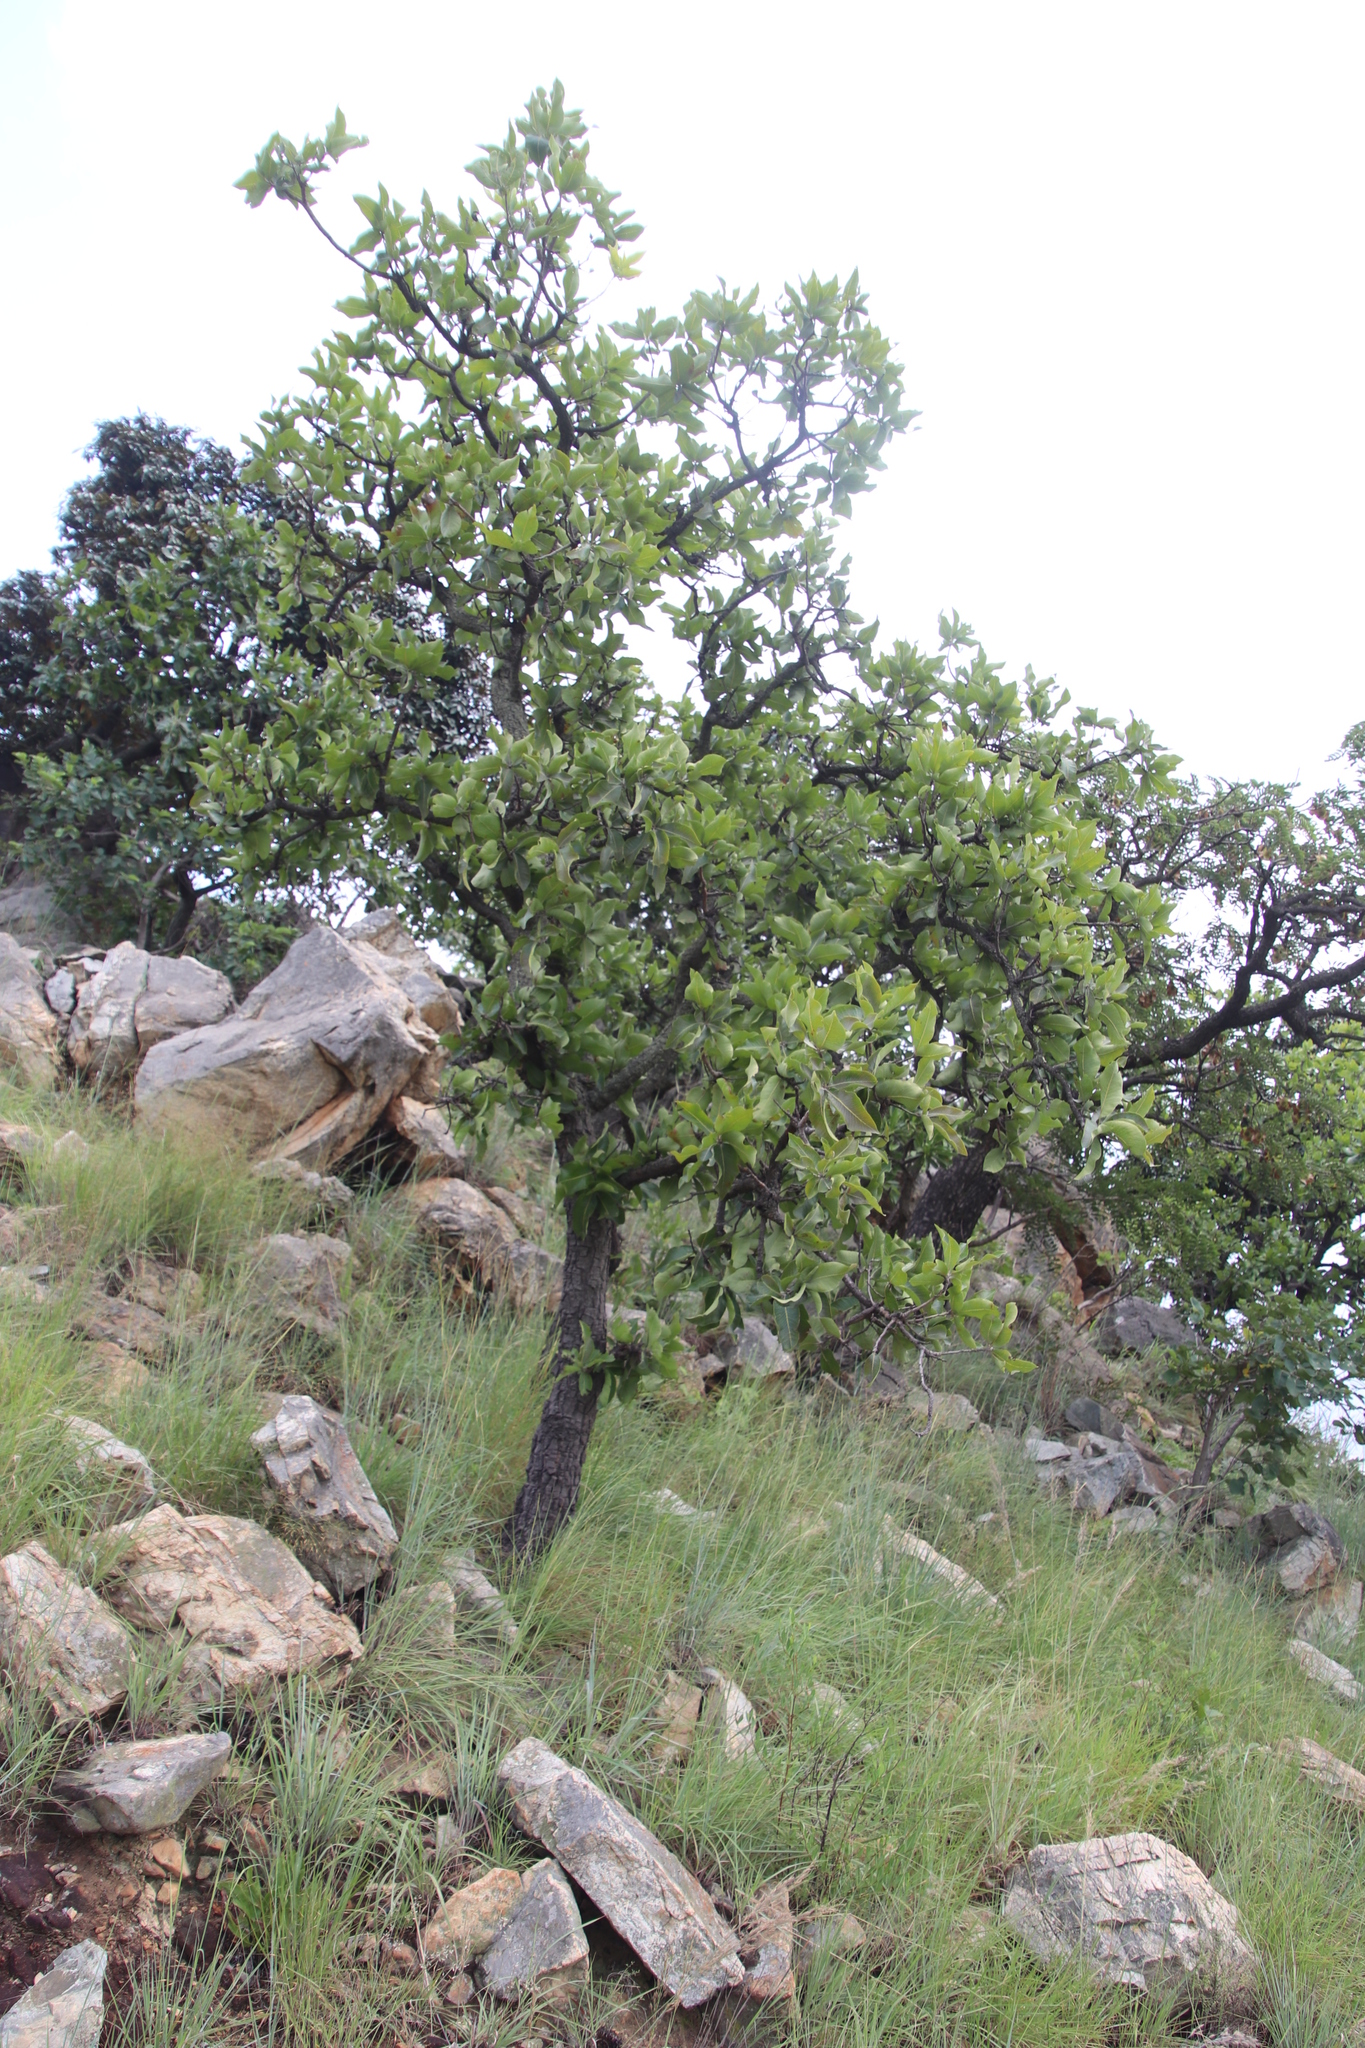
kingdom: Plantae
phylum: Tracheophyta
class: Magnoliopsida
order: Proteales
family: Proteaceae
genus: Faurea
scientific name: Faurea rochetiana
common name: Broad-leaved beech
